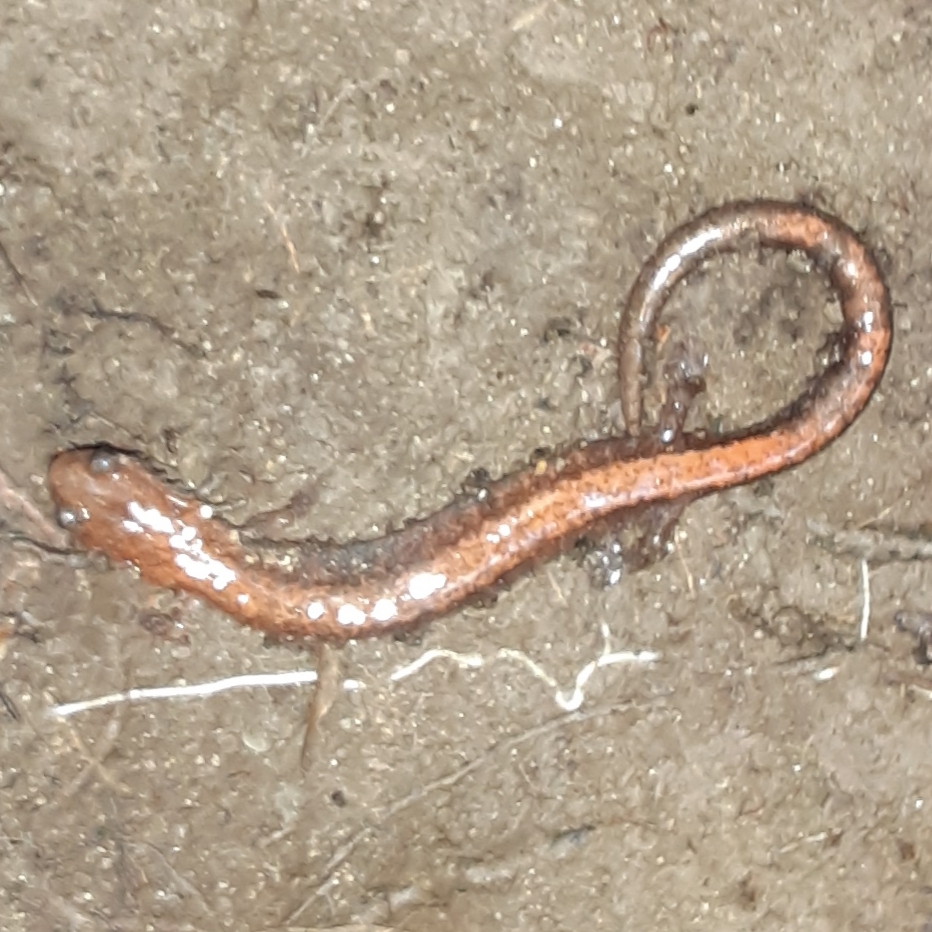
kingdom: Animalia
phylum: Chordata
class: Amphibia
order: Caudata
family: Plethodontidae
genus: Plethodon
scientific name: Plethodon cinereus
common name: Redback salamander
